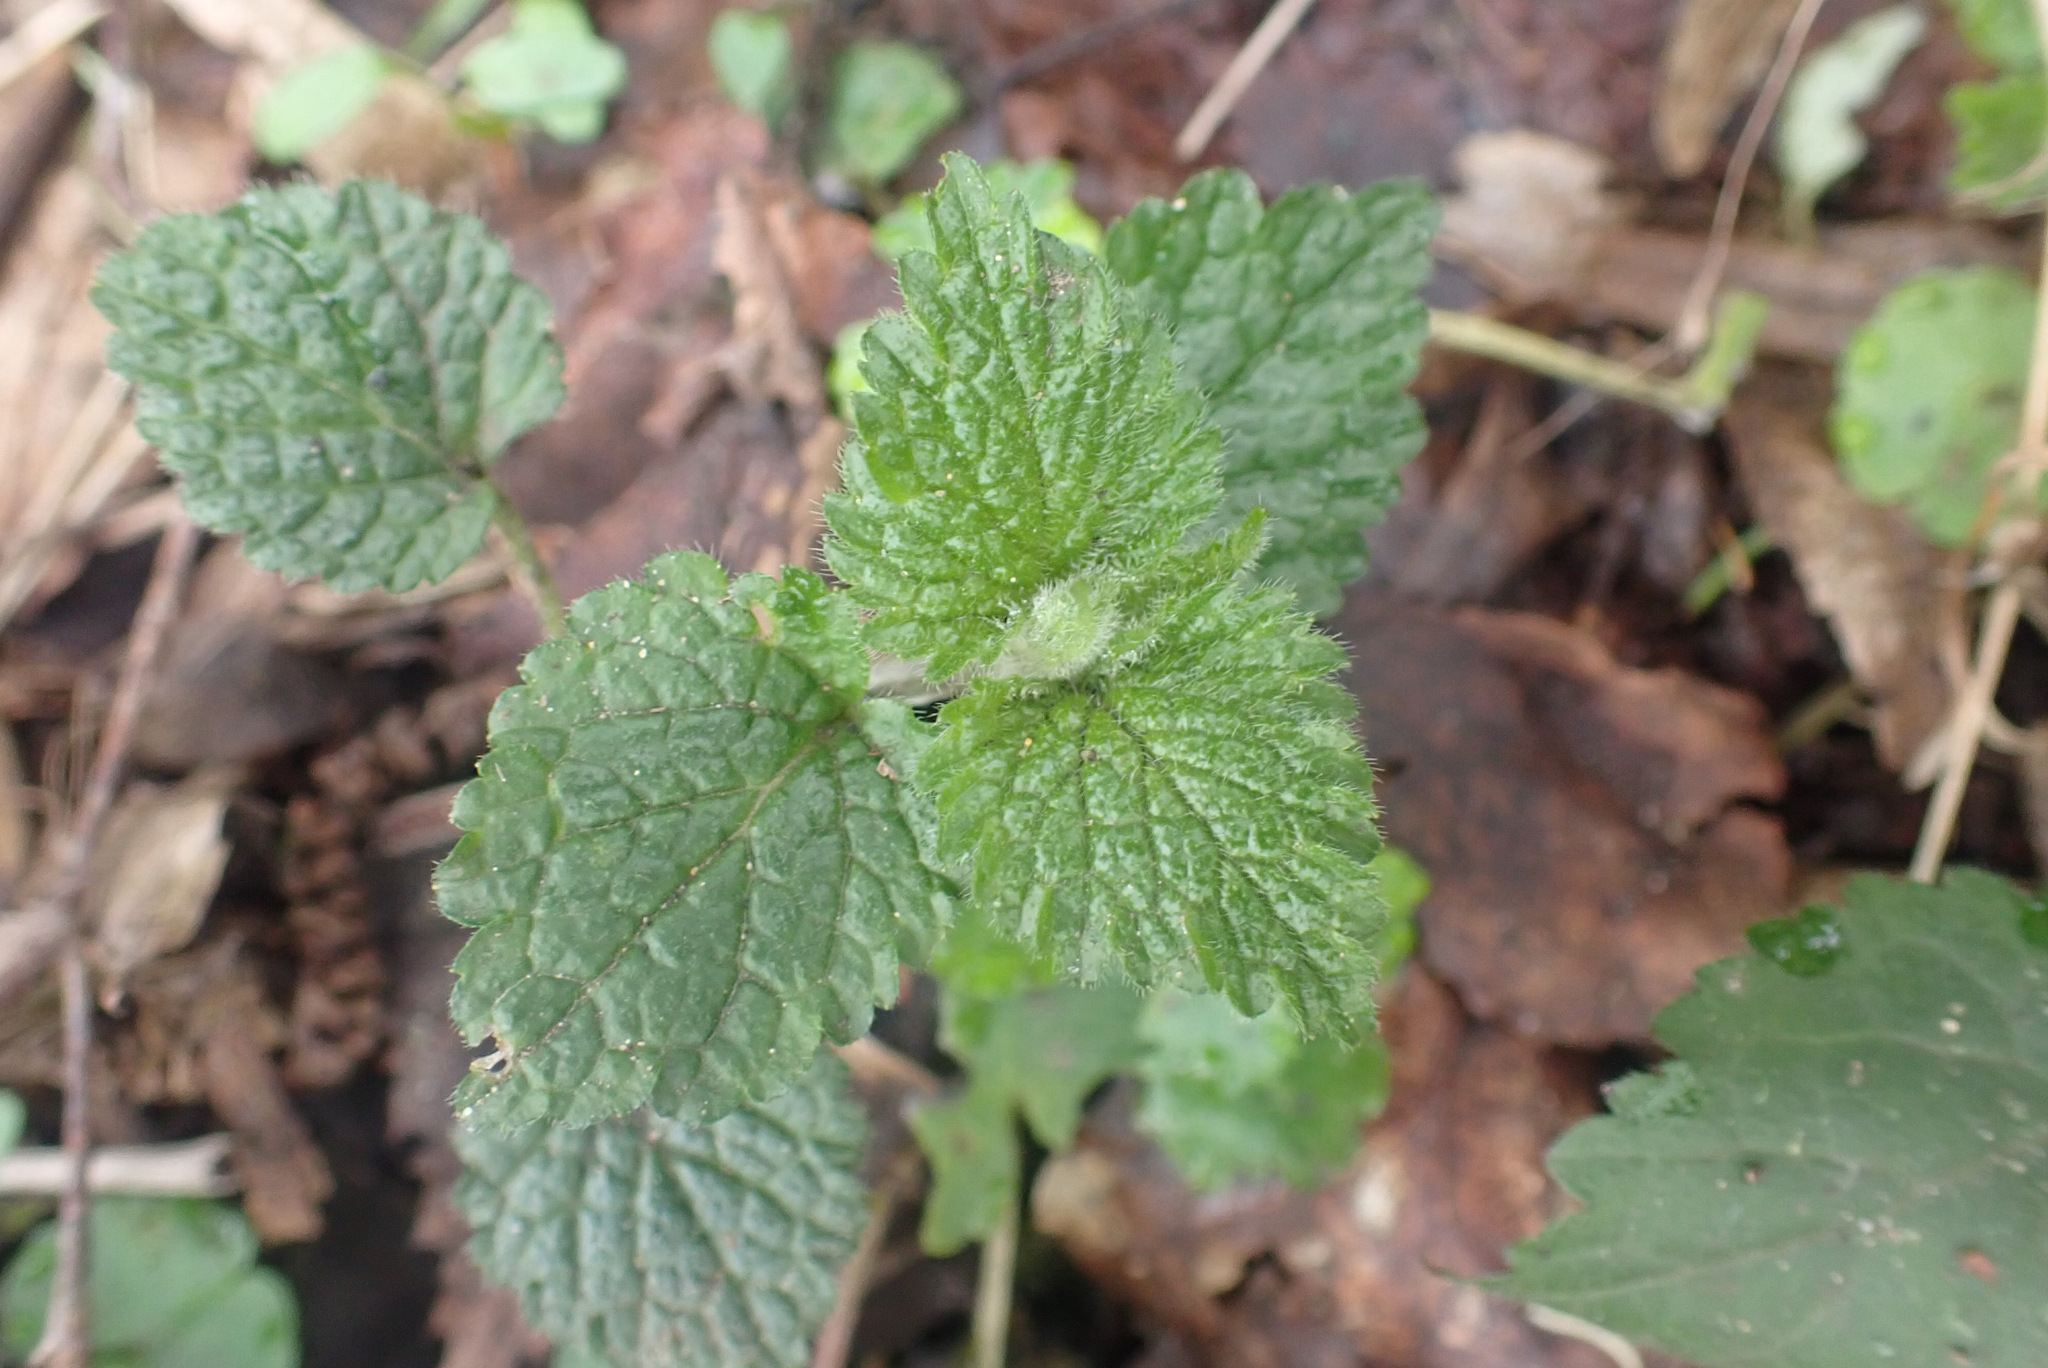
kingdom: Plantae
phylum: Tracheophyta
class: Magnoliopsida
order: Lamiales
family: Lamiaceae
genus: Lamium
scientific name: Lamium galeobdolon
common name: Yellow archangel
